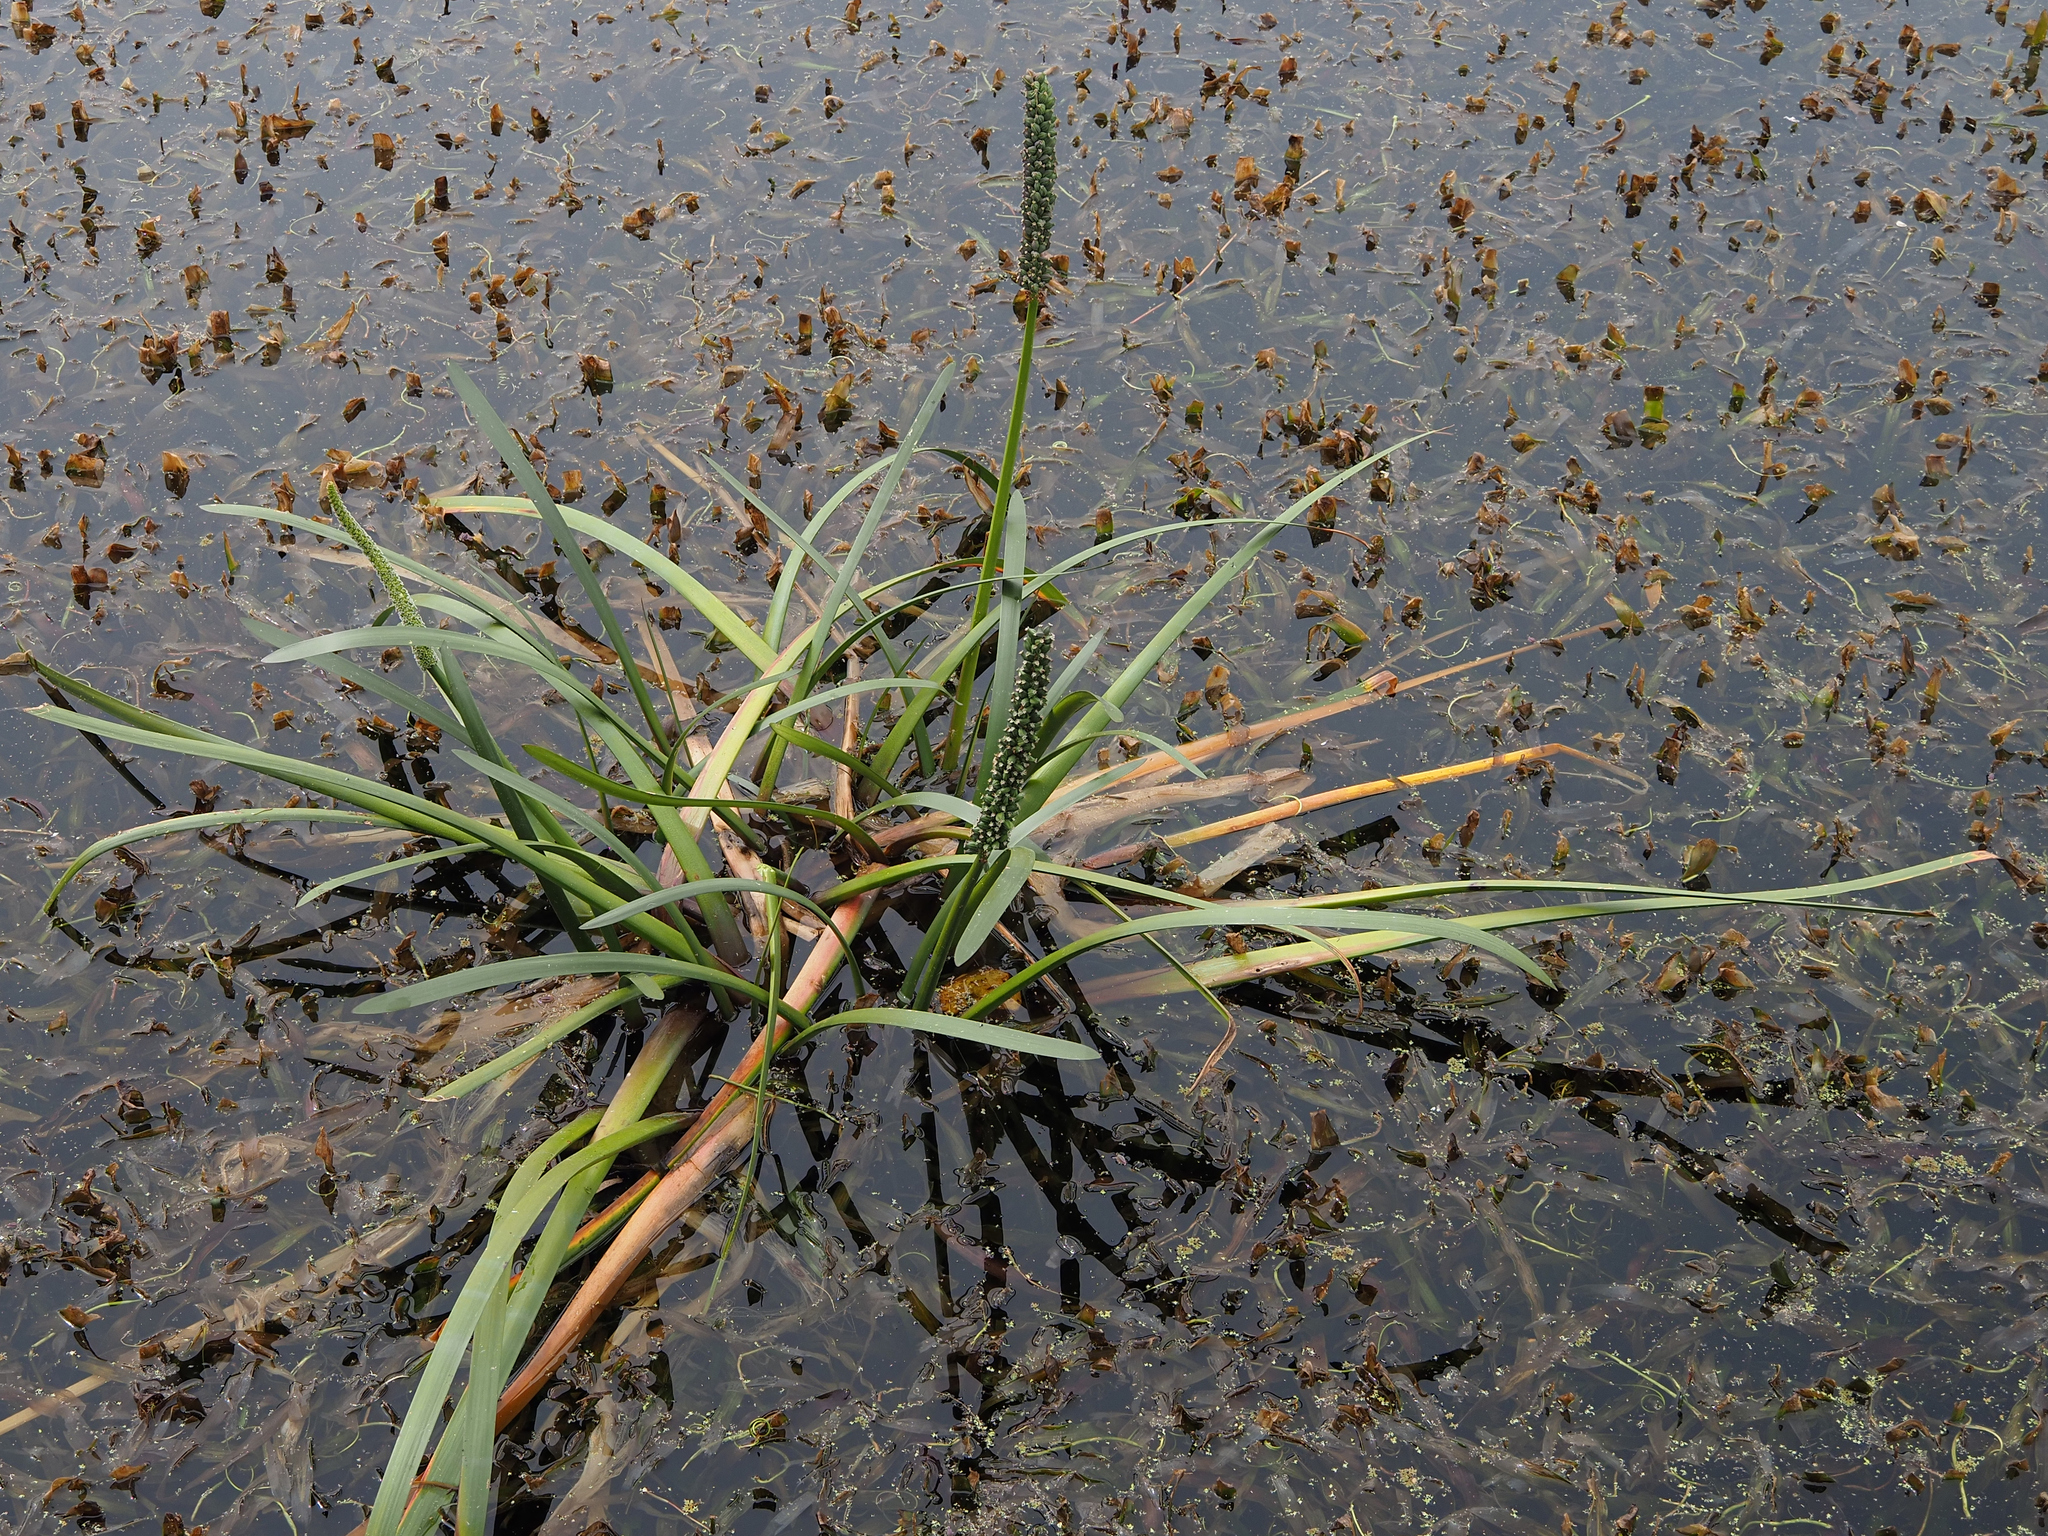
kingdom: Plantae
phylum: Tracheophyta
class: Liliopsida
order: Alismatales
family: Juncaginaceae
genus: Cycnogeton
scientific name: Cycnogeton procerum
